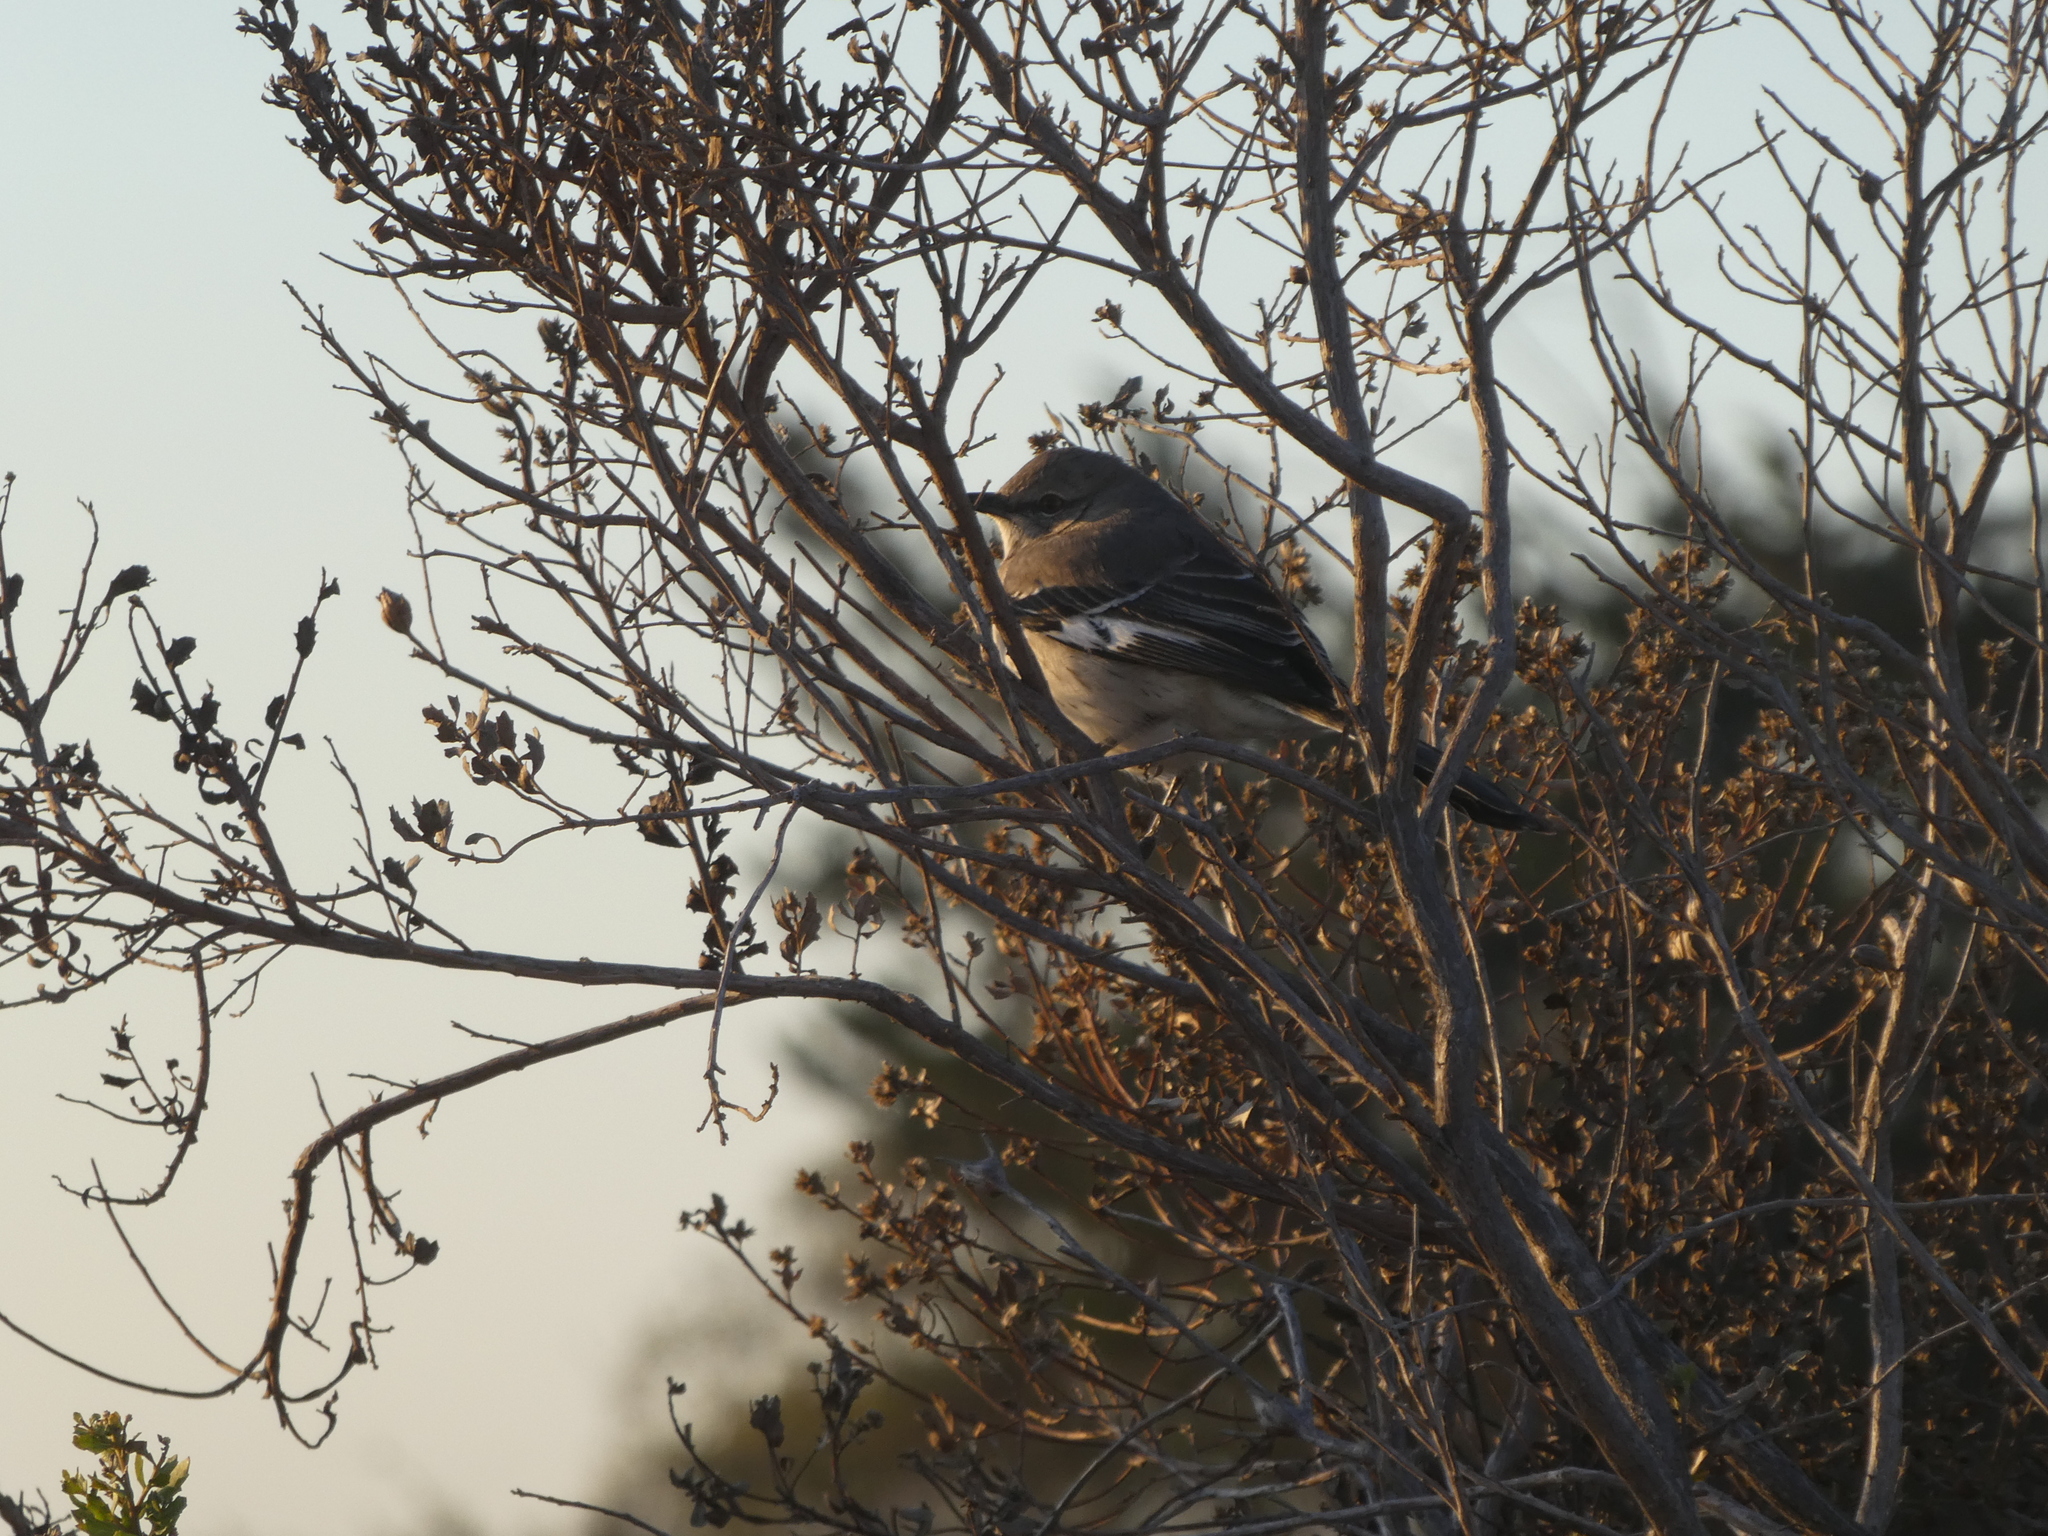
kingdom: Animalia
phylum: Chordata
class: Aves
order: Passeriformes
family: Mimidae
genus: Mimus
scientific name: Mimus polyglottos
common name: Northern mockingbird
